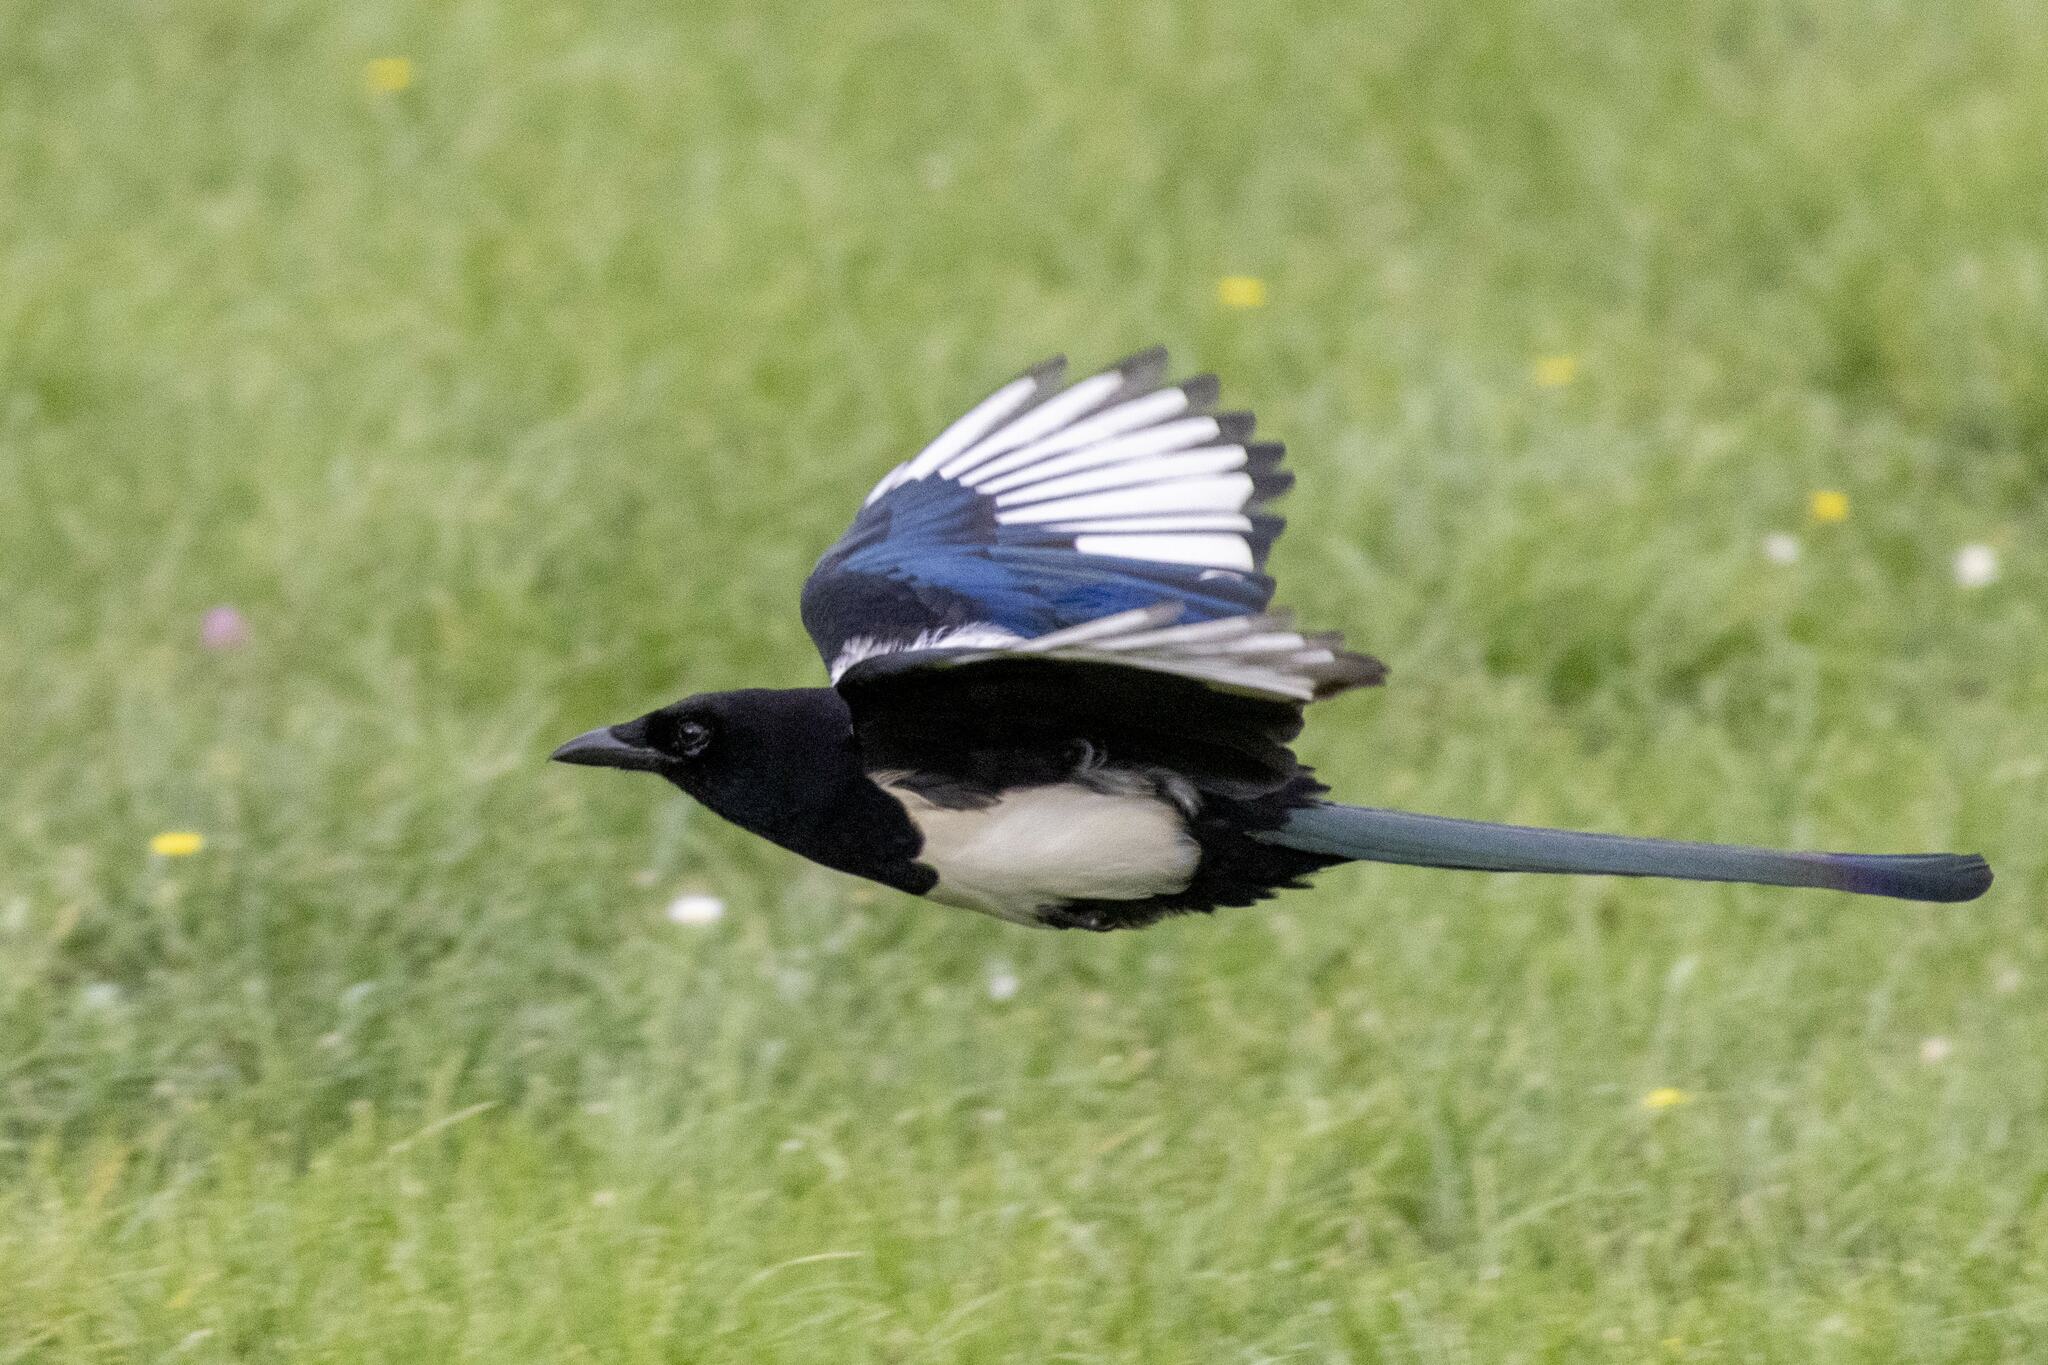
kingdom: Animalia
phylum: Chordata
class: Aves
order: Passeriformes
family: Corvidae
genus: Pica
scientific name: Pica pica
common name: Eurasian magpie
